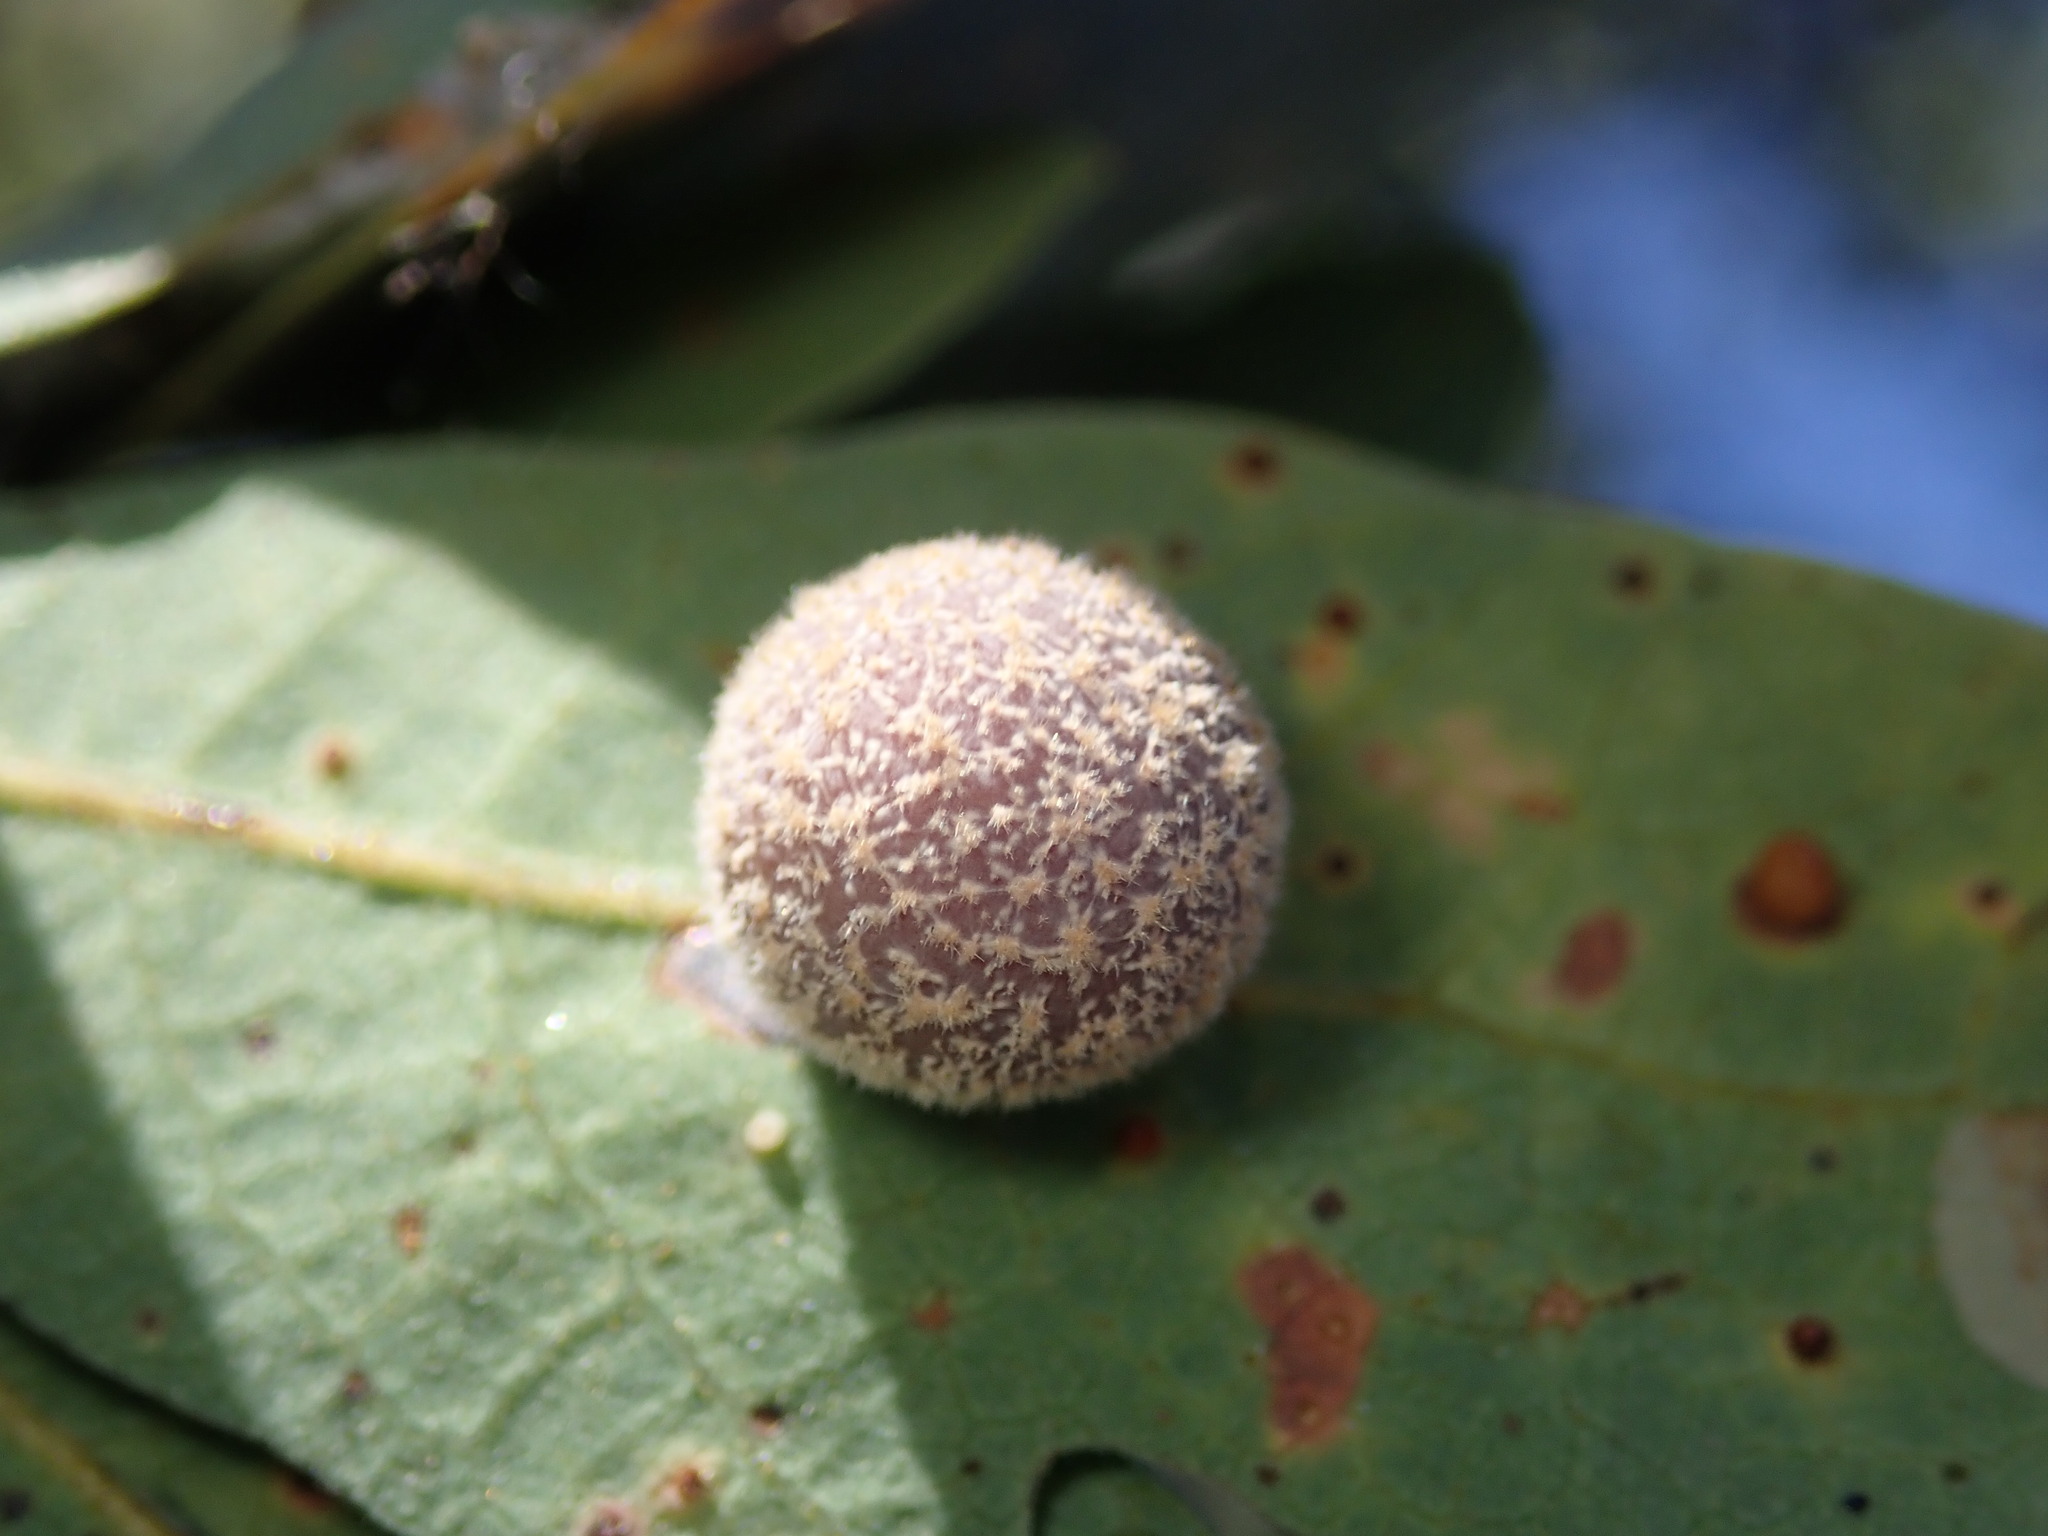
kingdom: Animalia
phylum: Arthropoda
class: Insecta
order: Hymenoptera
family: Cynipidae
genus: Cynips
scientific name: Cynips
